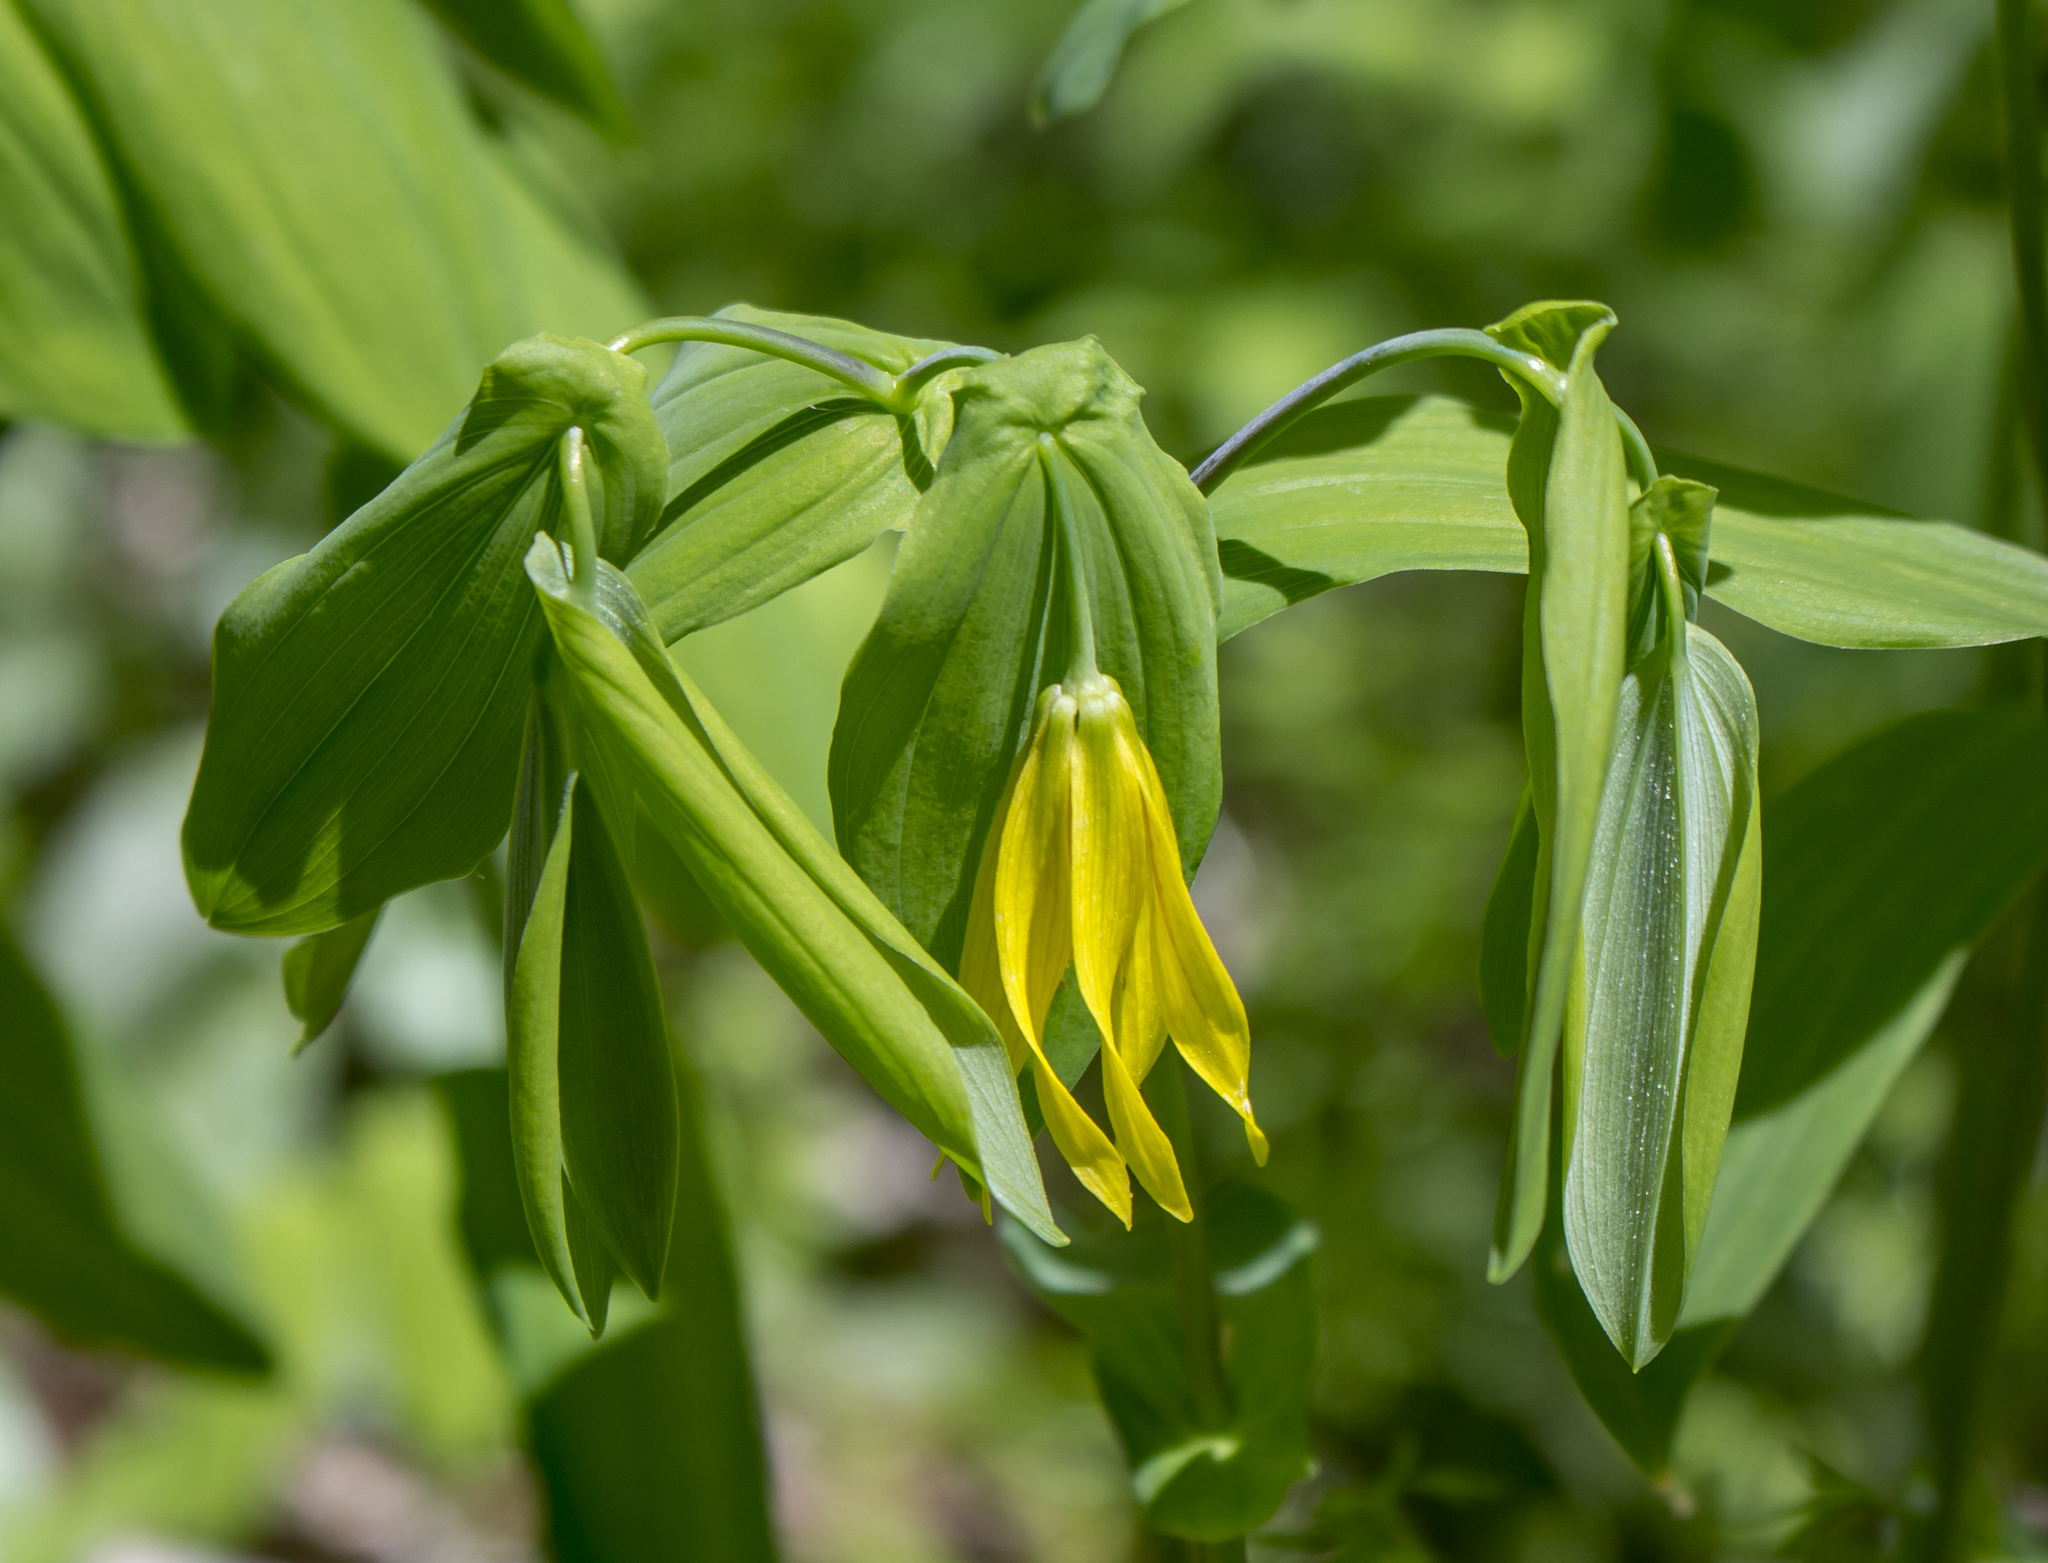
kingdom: Plantae
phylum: Tracheophyta
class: Liliopsida
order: Liliales
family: Colchicaceae
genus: Uvularia
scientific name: Uvularia grandiflora
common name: Bellwort
